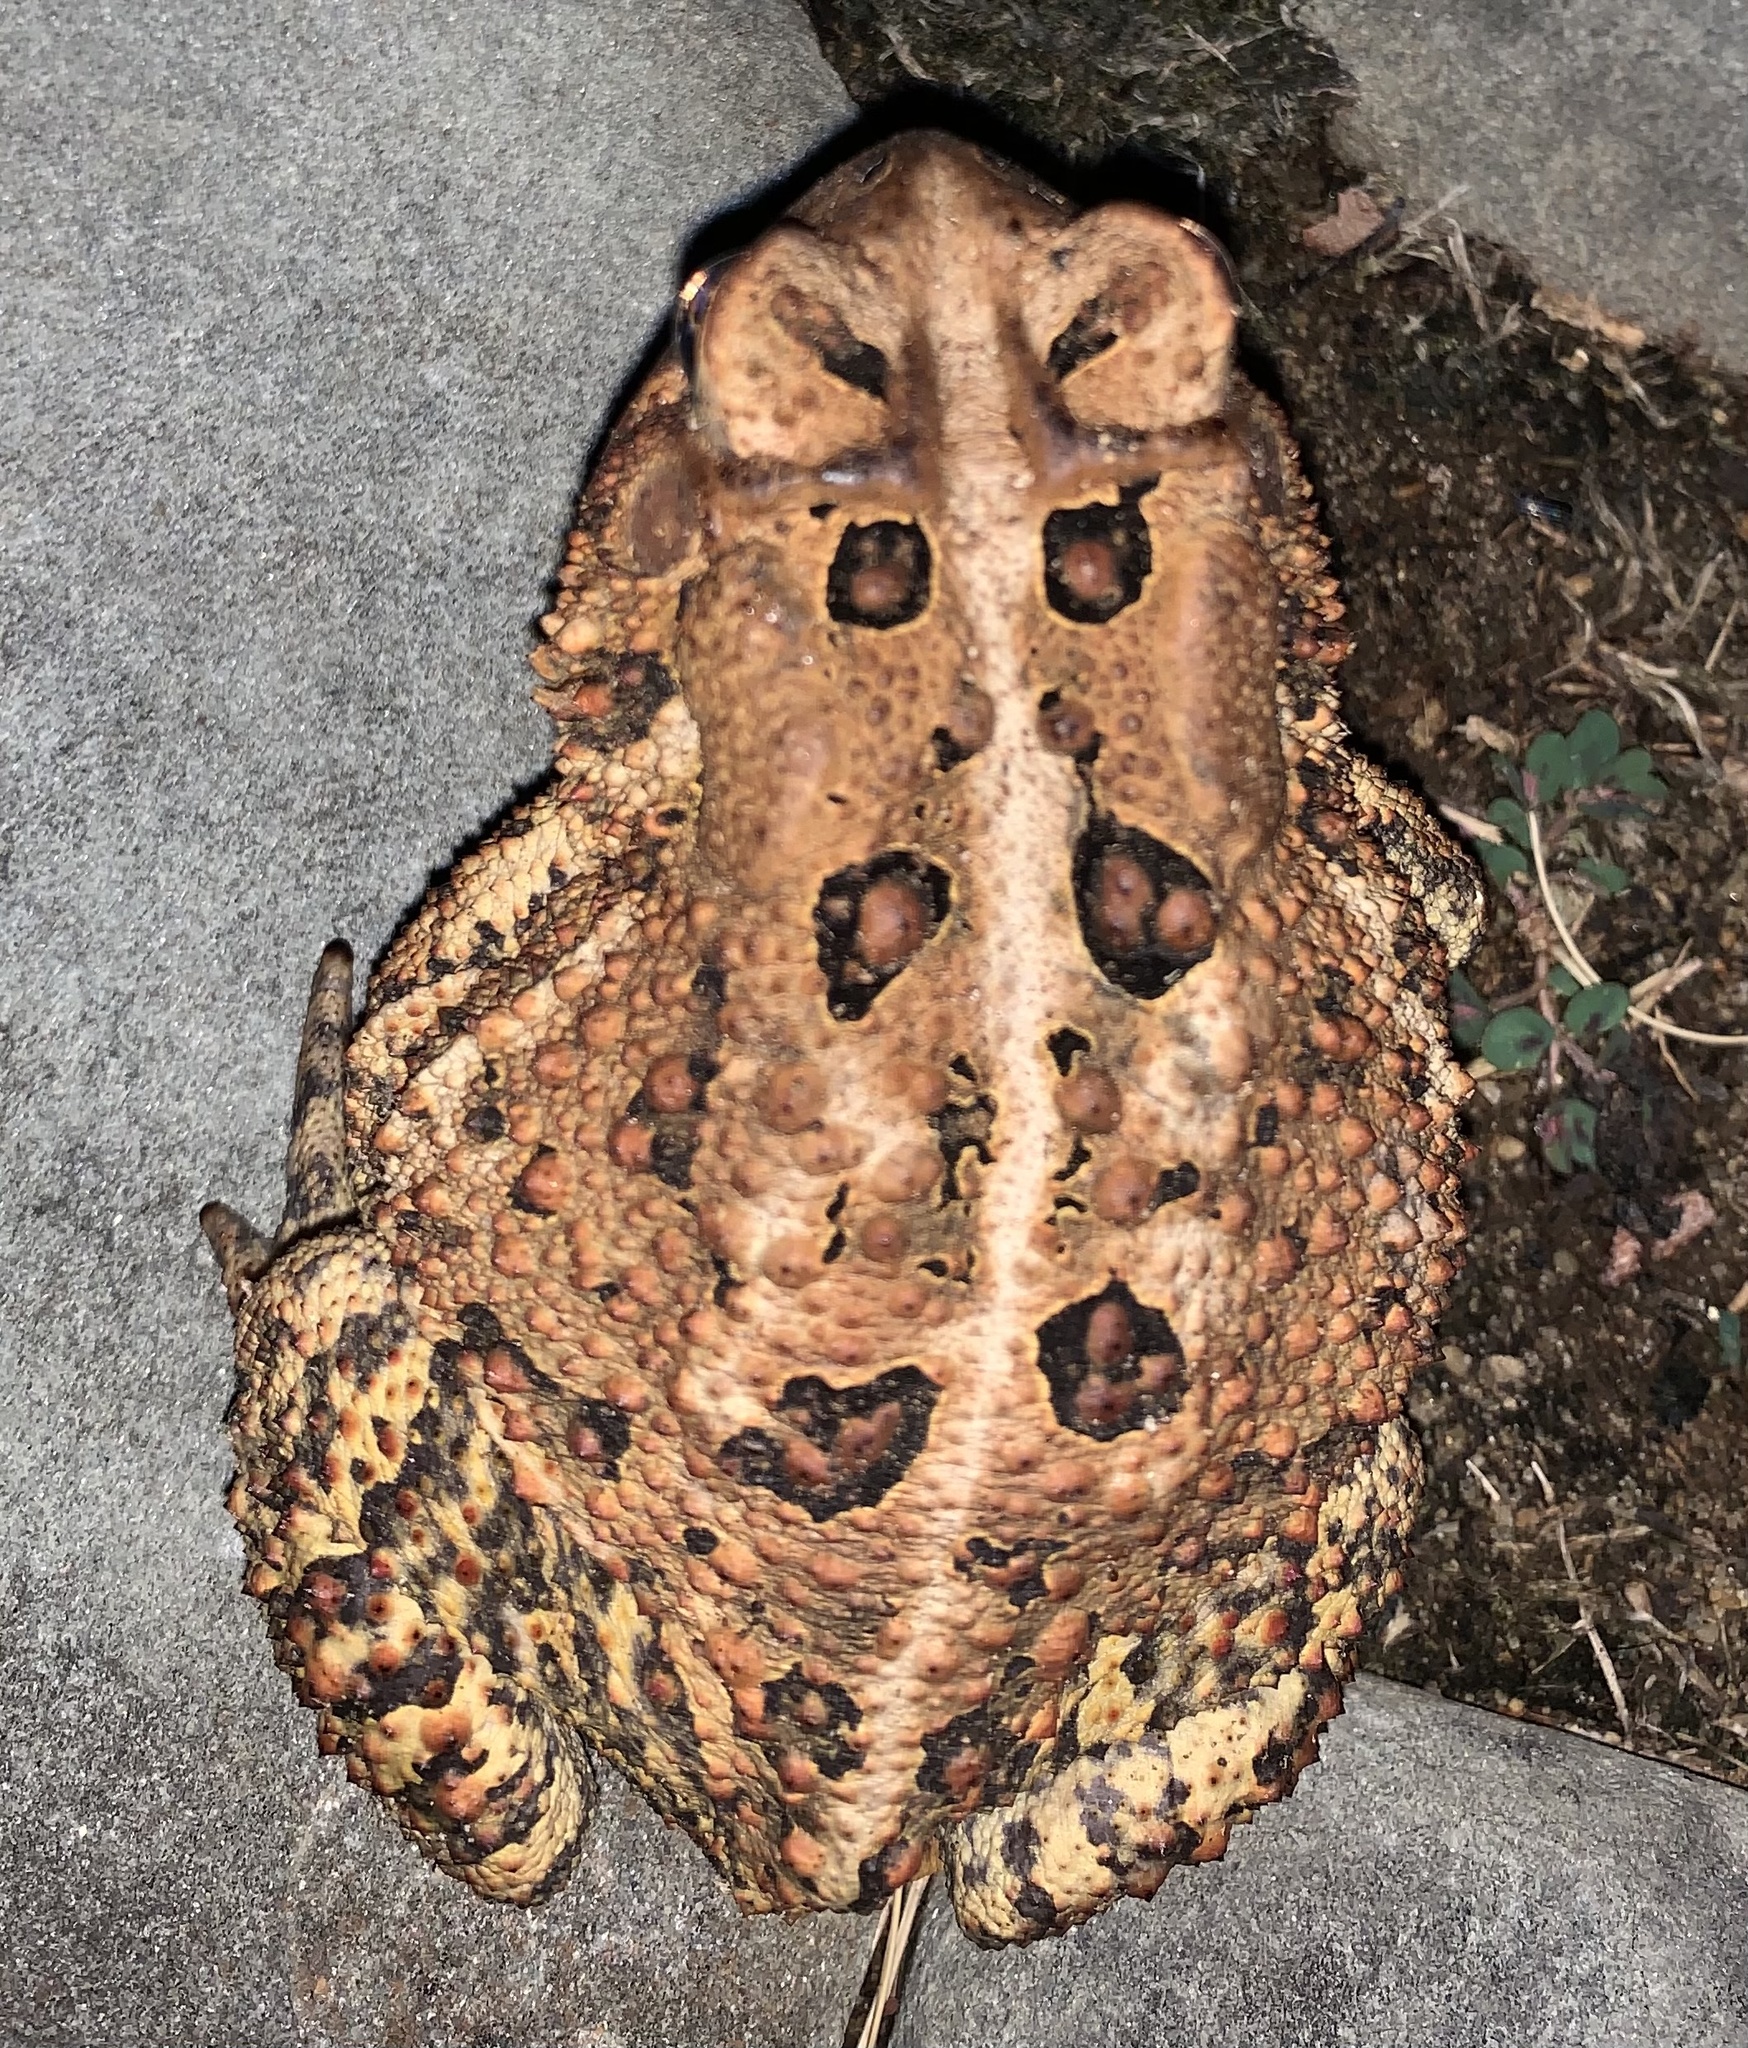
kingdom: Animalia
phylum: Chordata
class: Amphibia
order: Anura
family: Bufonidae
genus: Anaxyrus
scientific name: Anaxyrus americanus
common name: American toad
